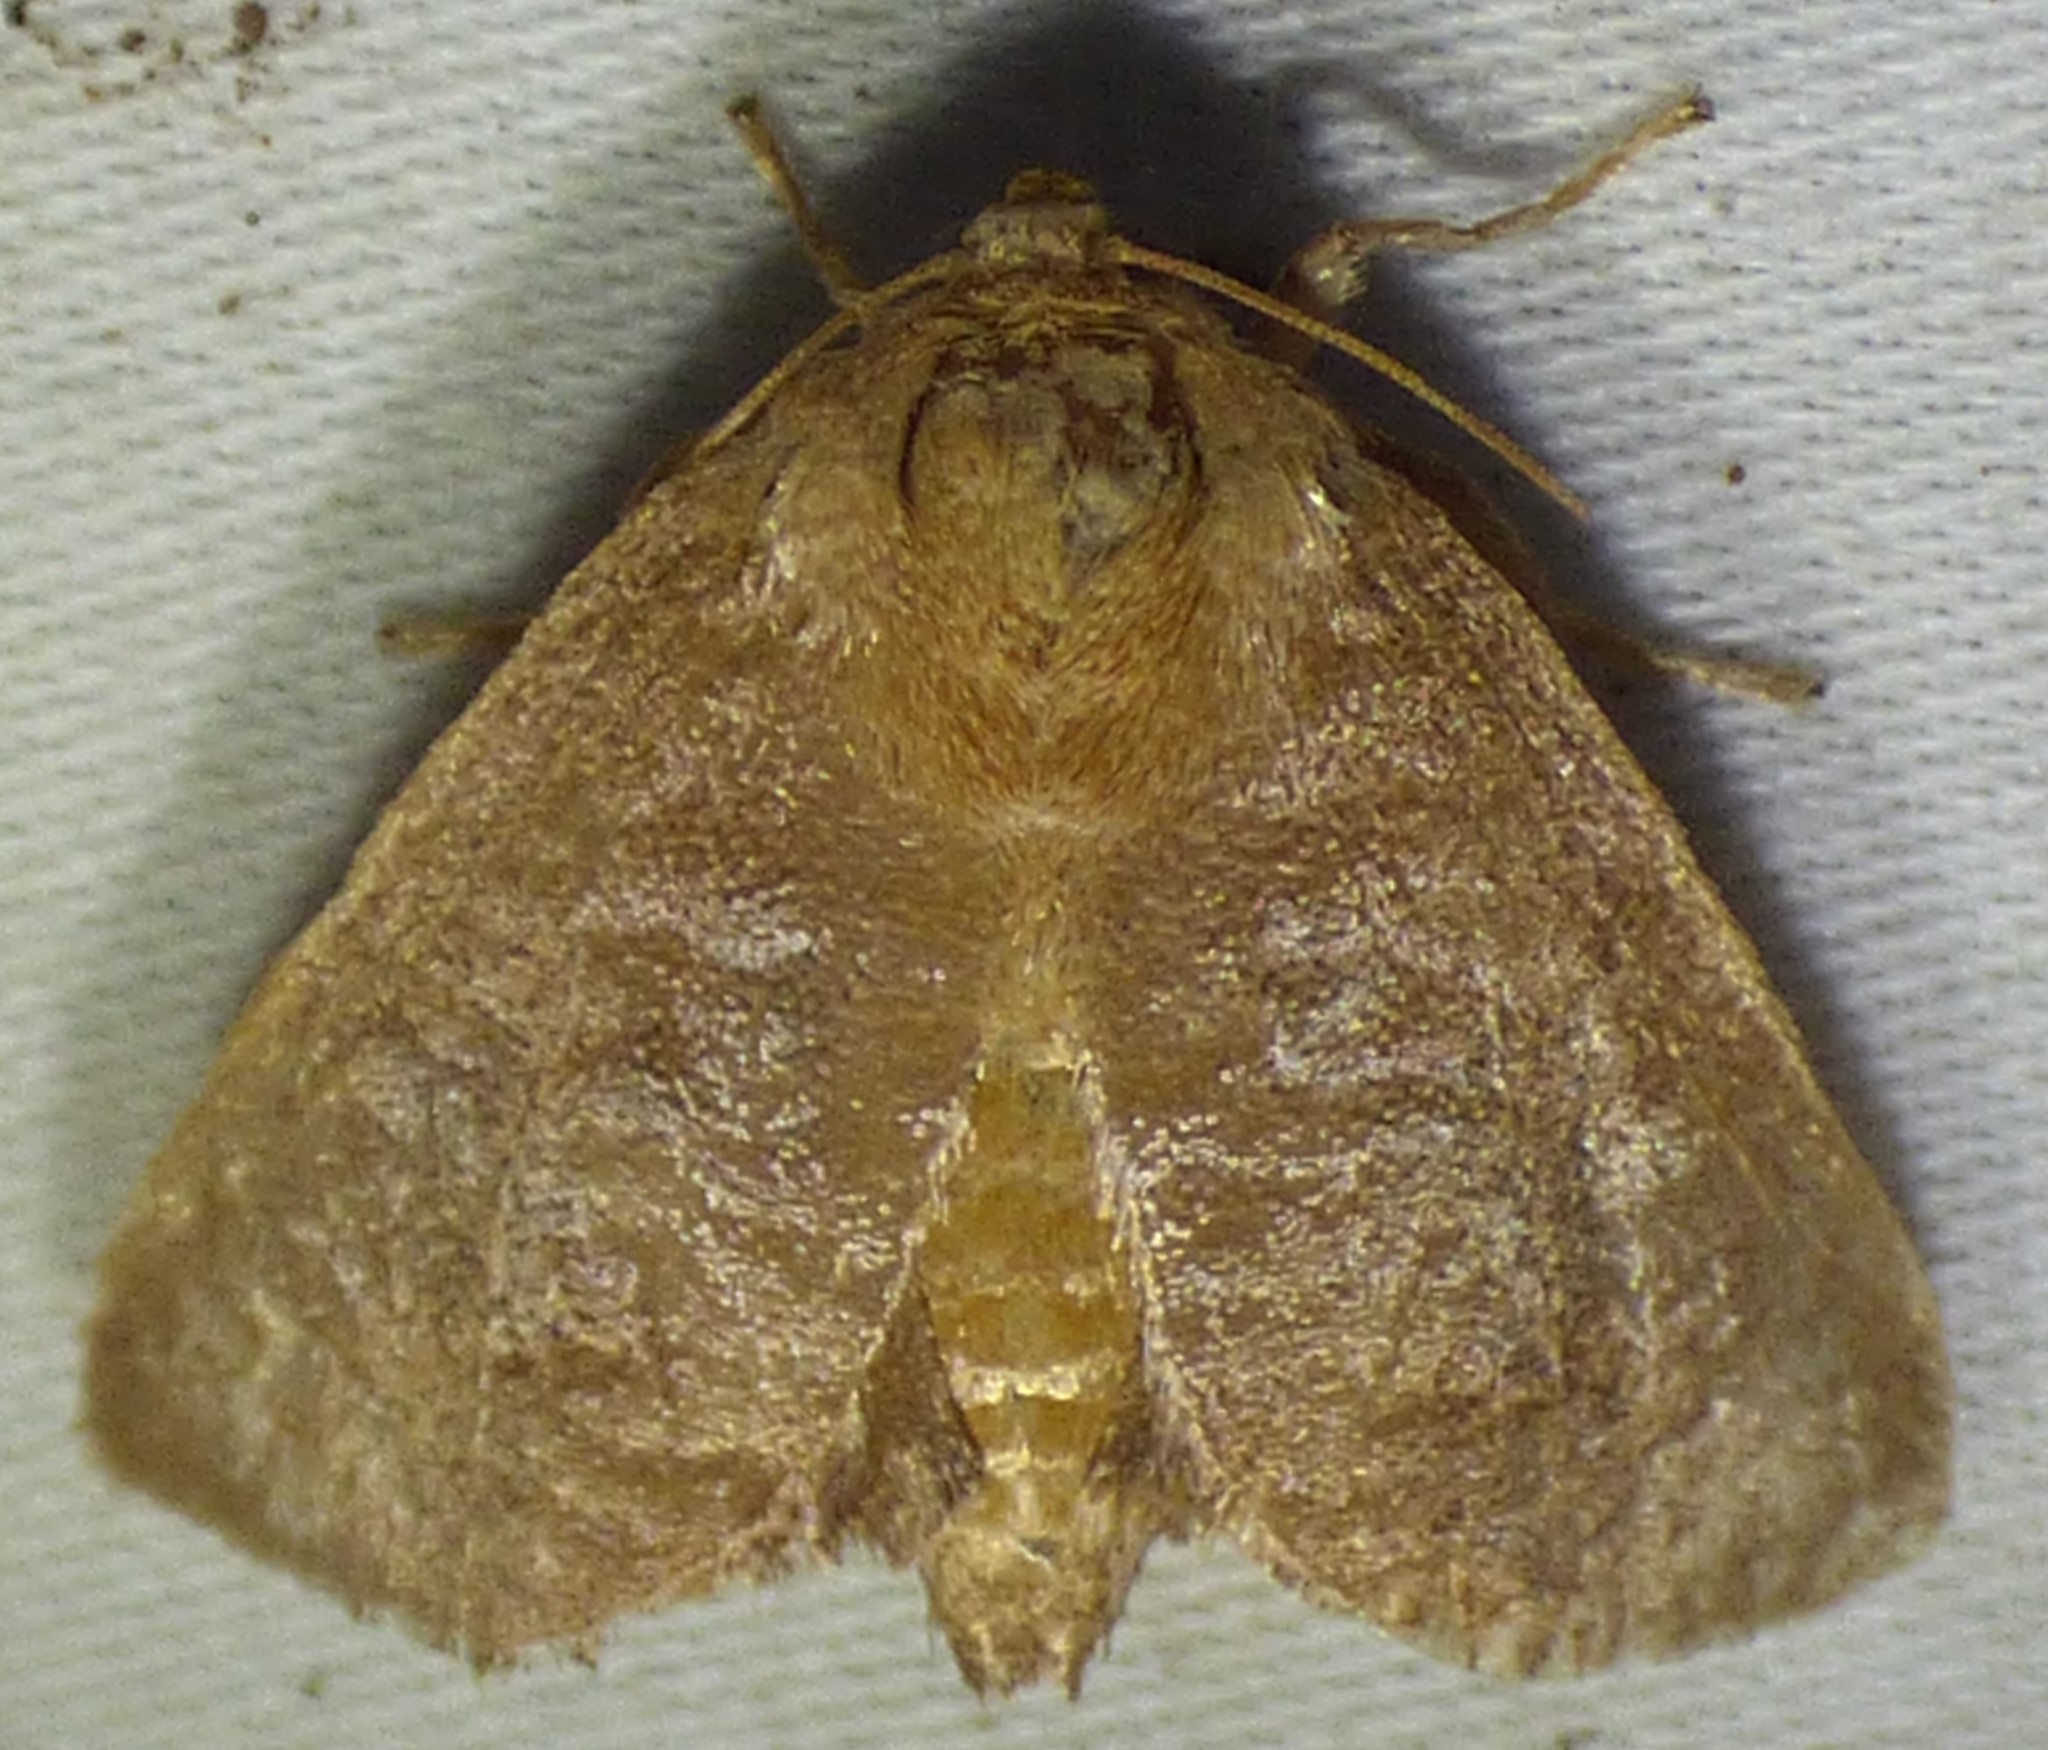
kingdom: Animalia
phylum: Arthropoda
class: Insecta
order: Lepidoptera
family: Limacodidae
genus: Isa
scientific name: Isa textula
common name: Crowned slug moth
